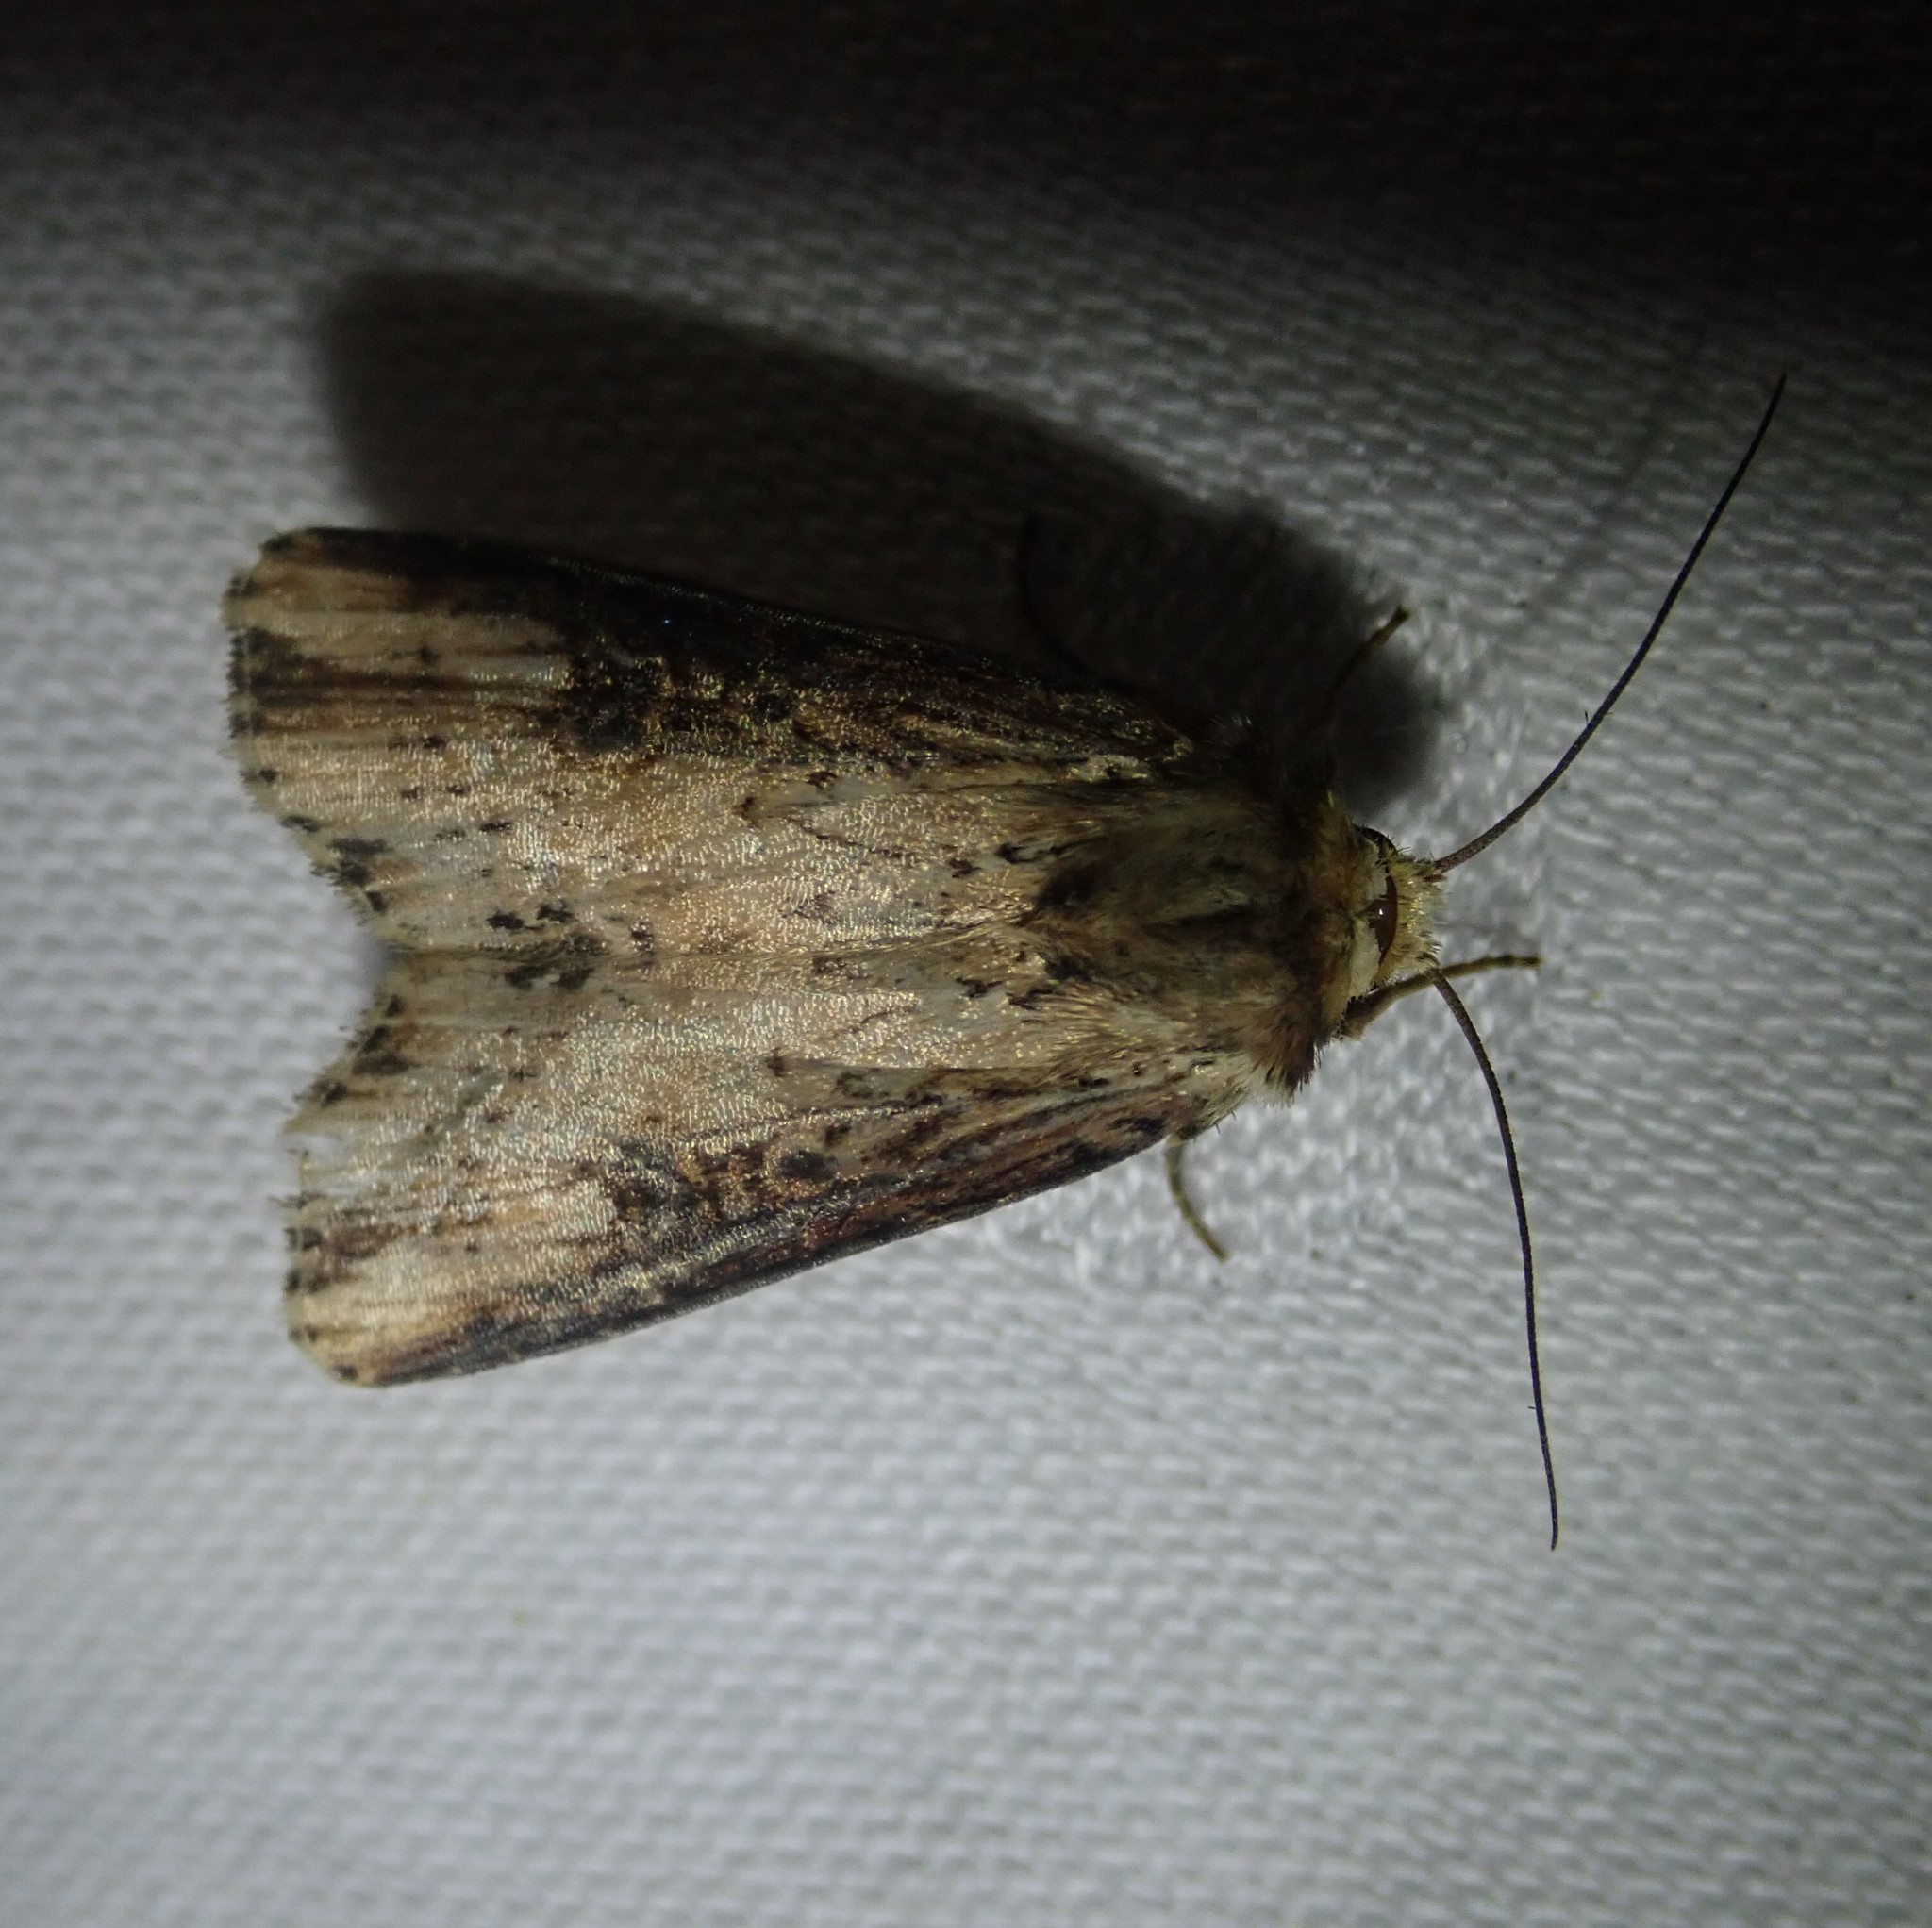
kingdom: Animalia
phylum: Arthropoda
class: Insecta
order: Lepidoptera
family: Noctuidae
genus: Axylia
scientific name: Axylia putris
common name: Flame
